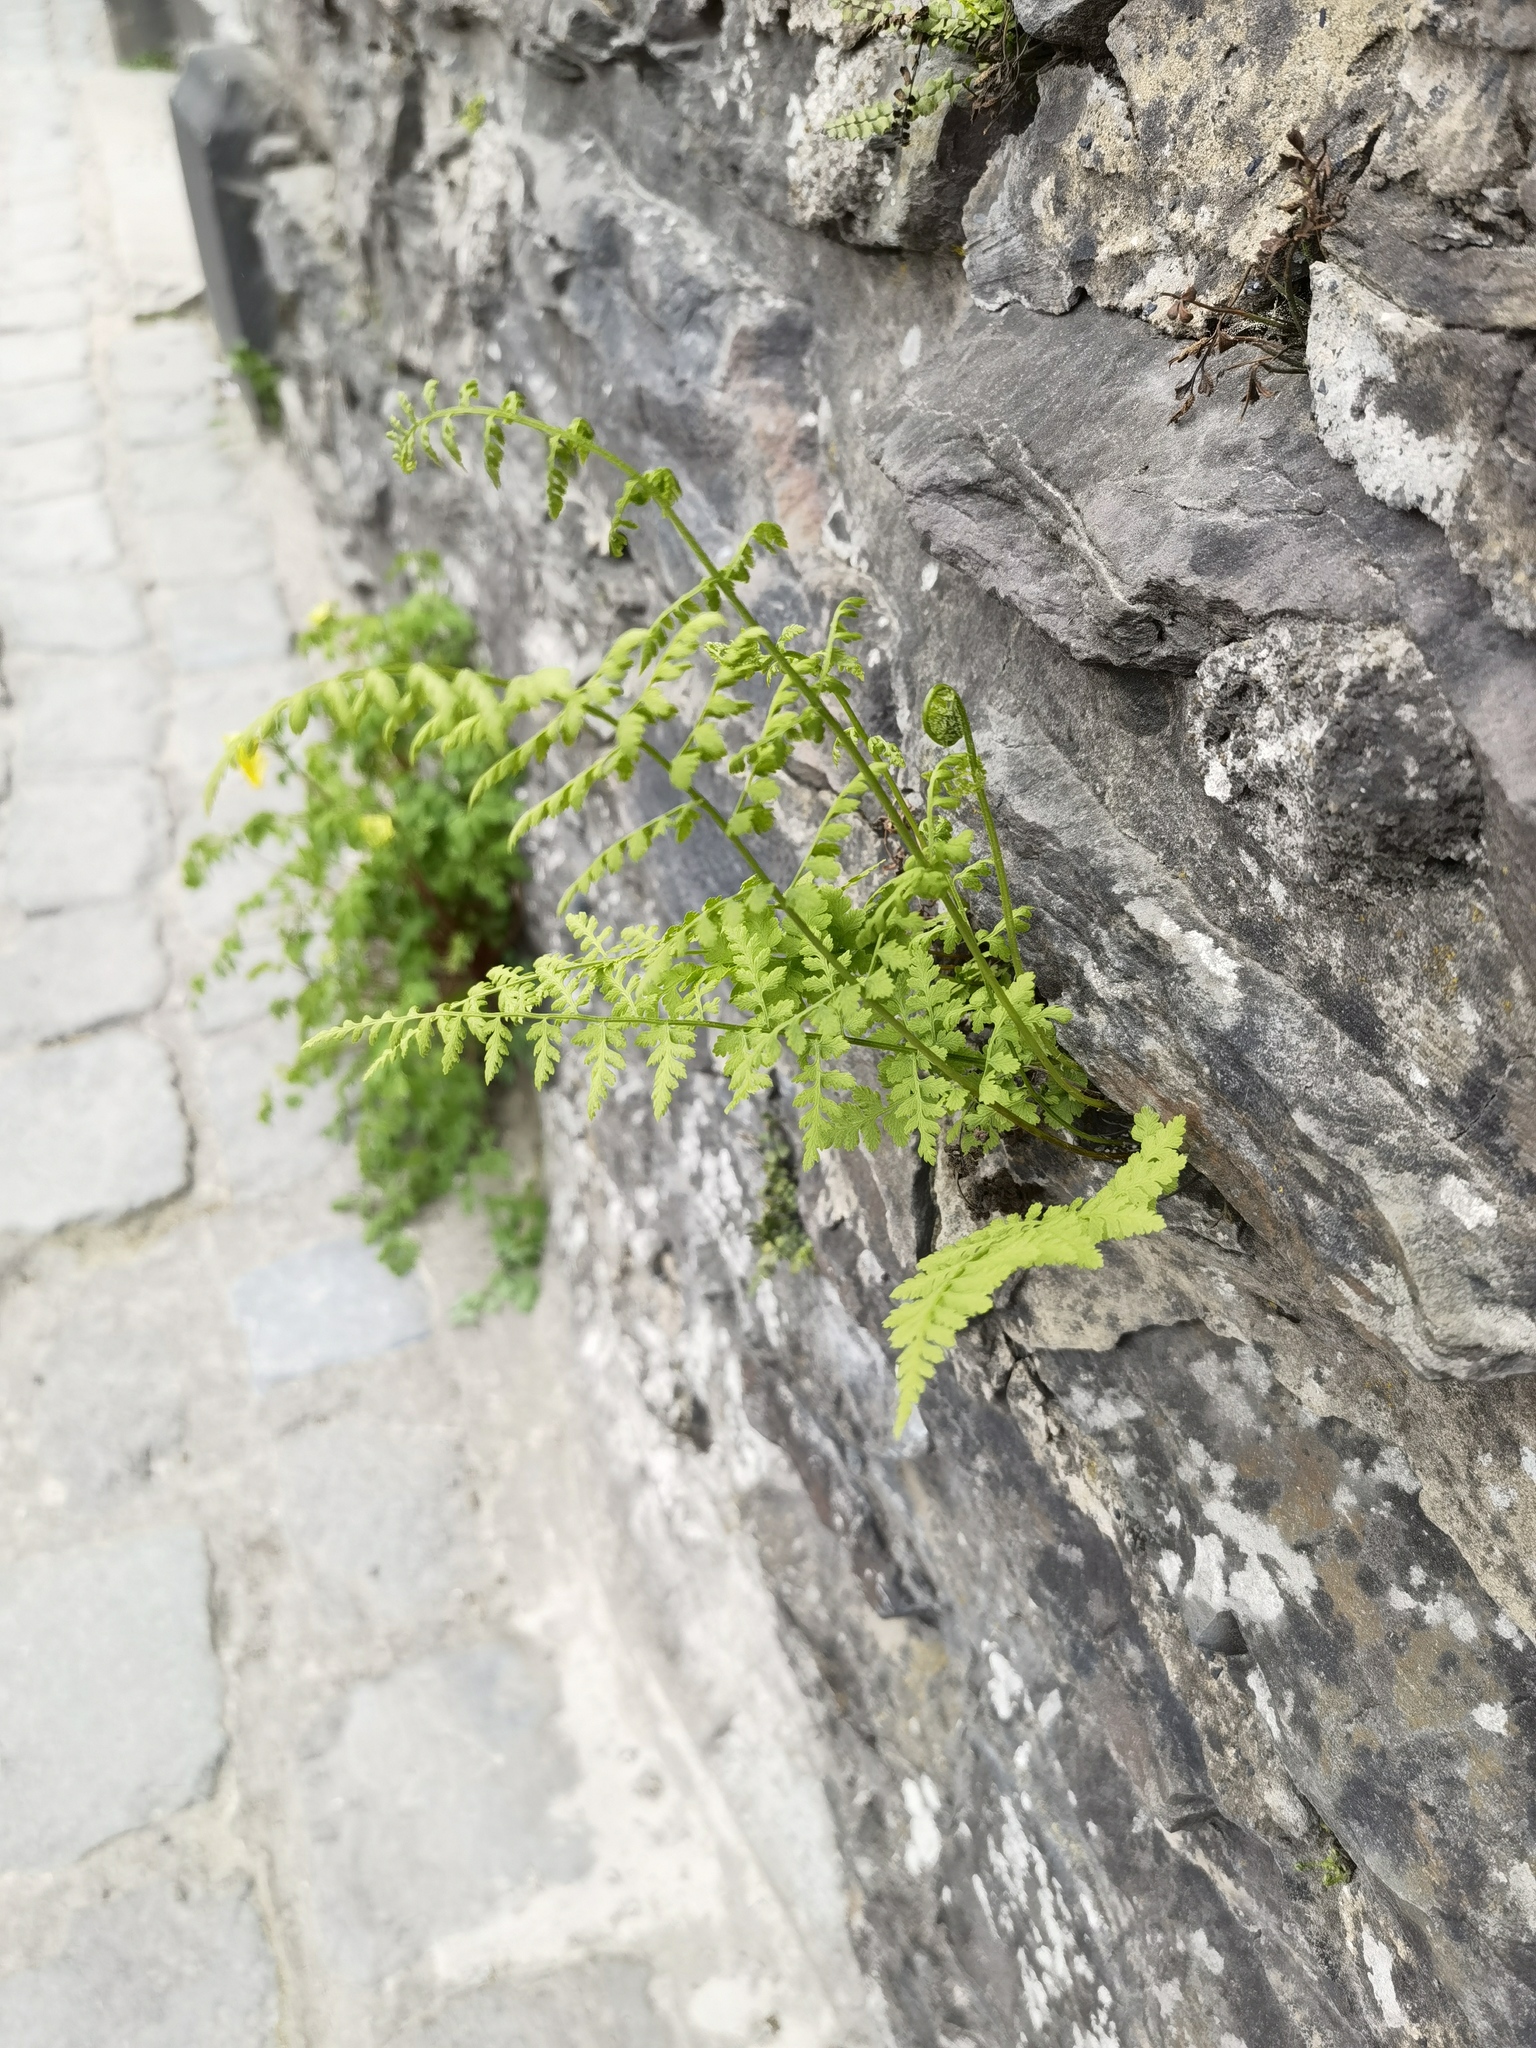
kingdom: Plantae
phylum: Tracheophyta
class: Polypodiopsida
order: Polypodiales
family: Cystopteridaceae
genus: Cystopteris
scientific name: Cystopteris fragilis
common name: Brittle bladder fern
